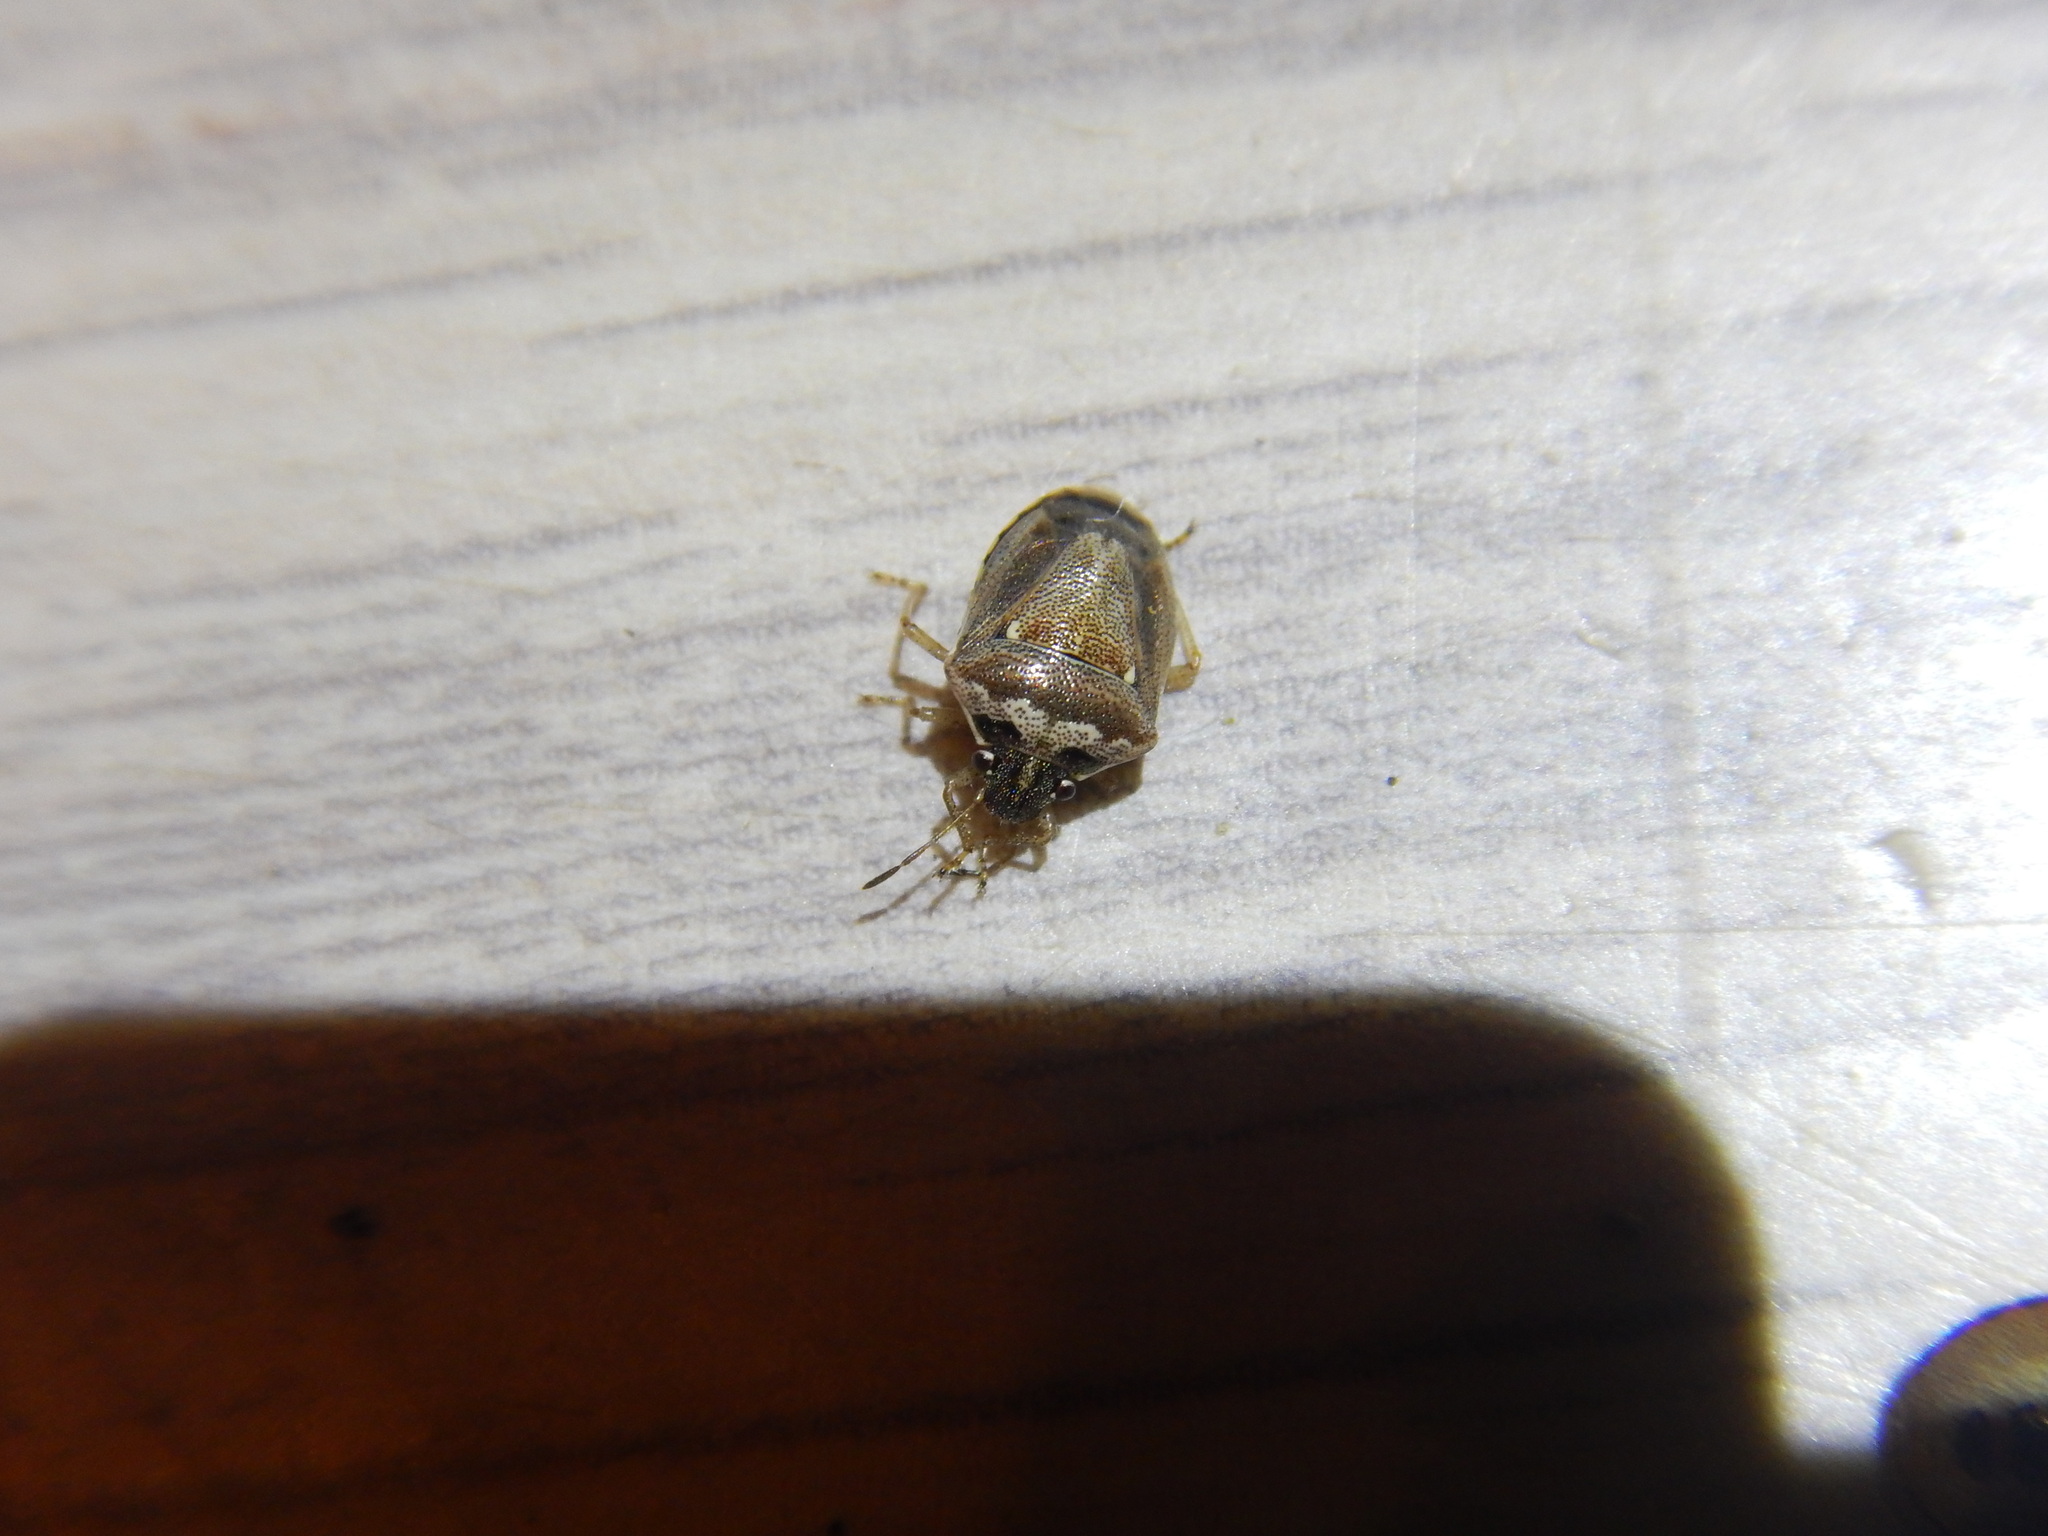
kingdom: Animalia
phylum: Arthropoda
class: Insecta
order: Hemiptera
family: Pentatomidae
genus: Eysarcoris
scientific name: Eysarcoris ventralis
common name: White-spotted stink bug
